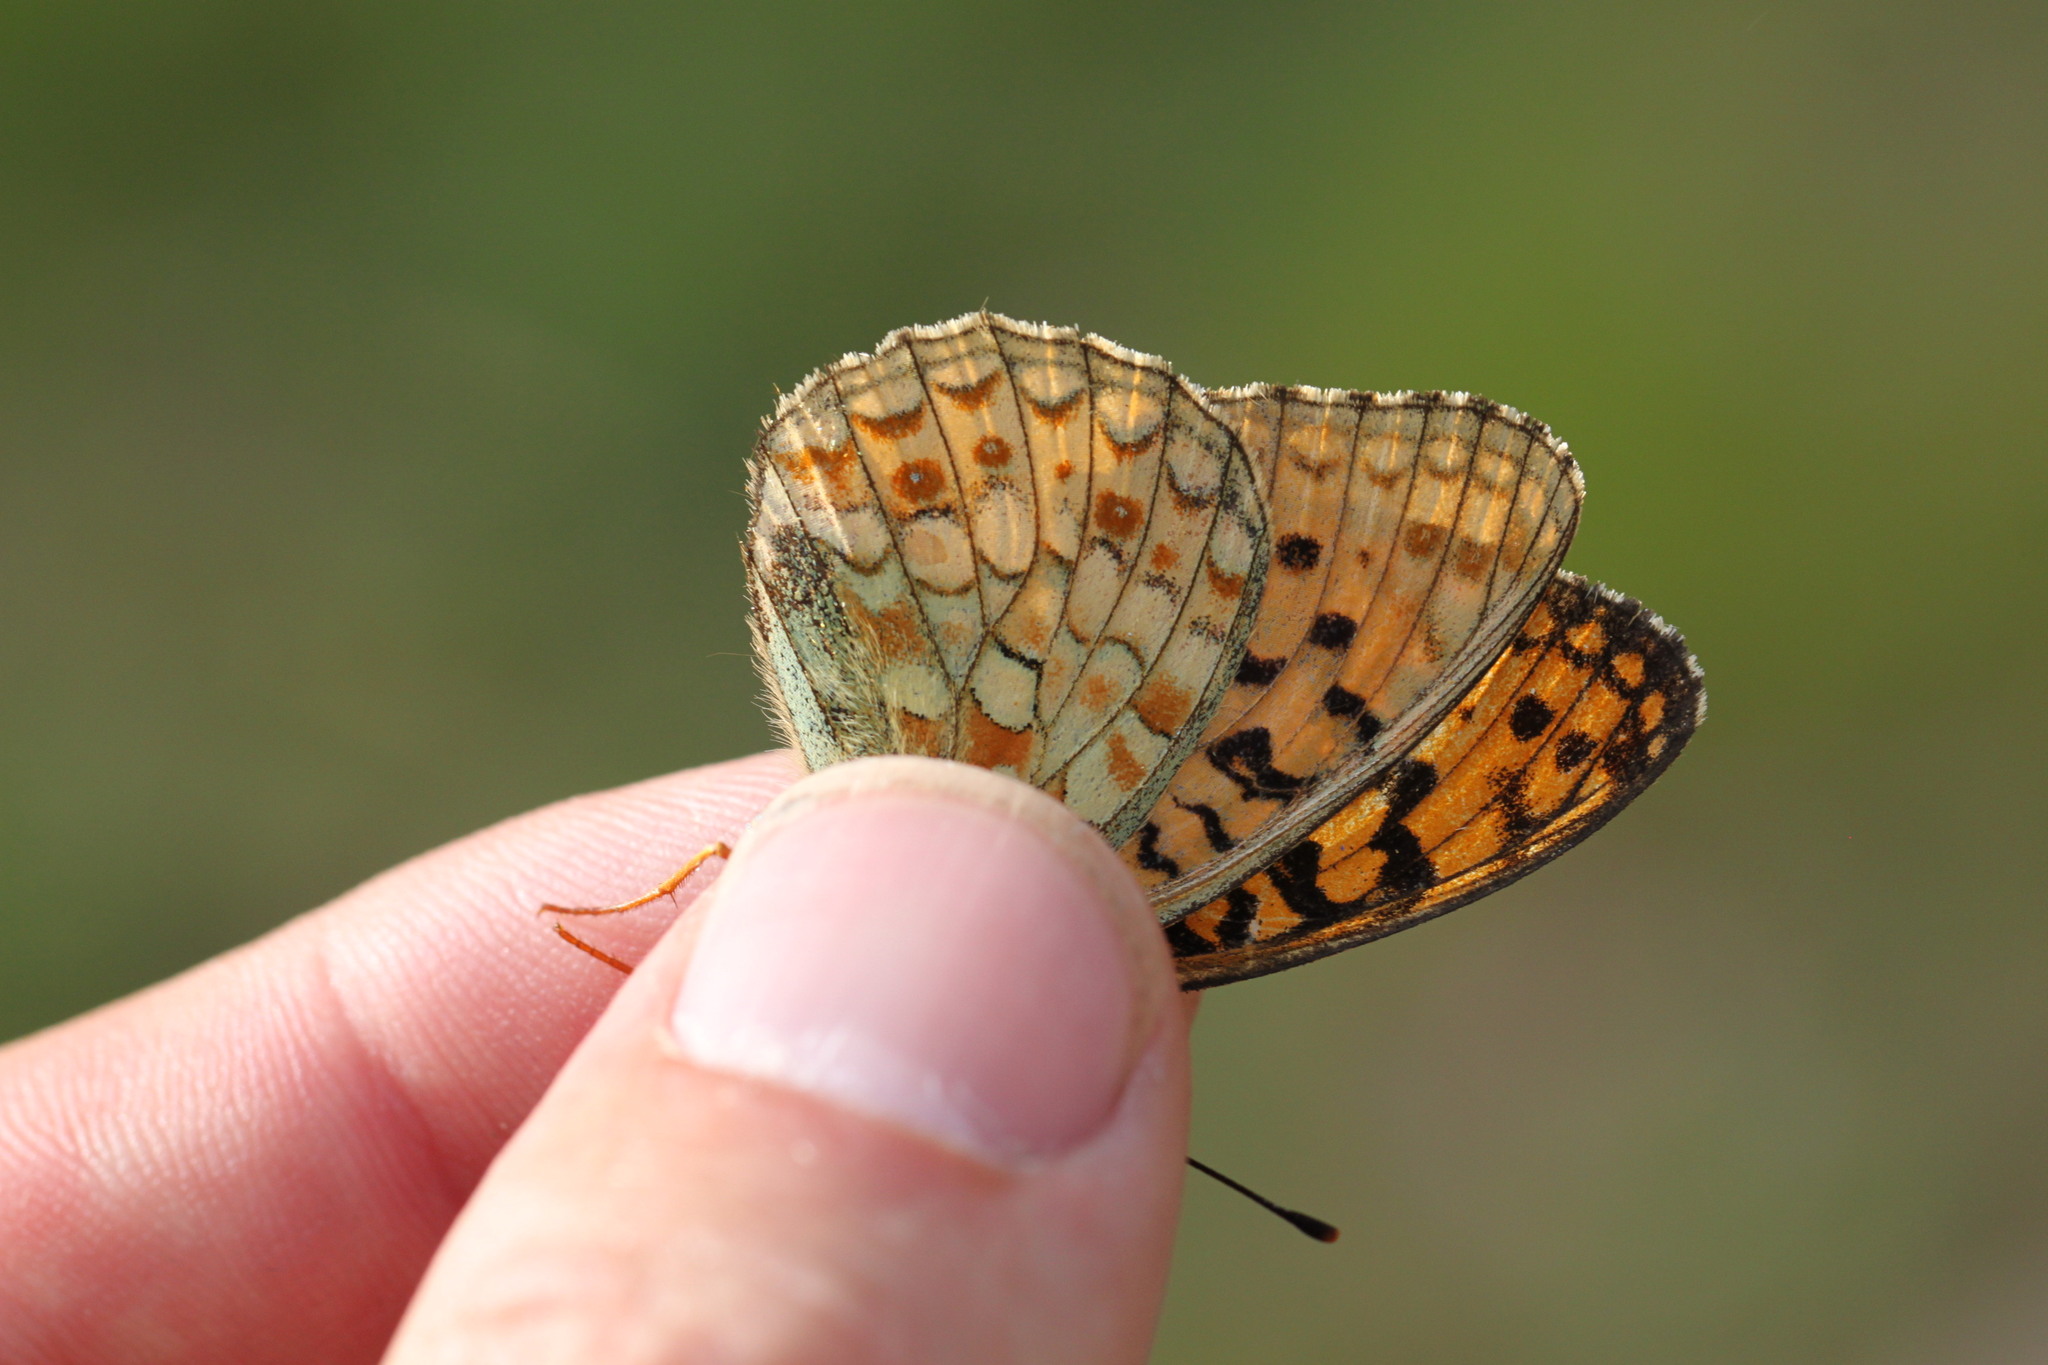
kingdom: Animalia
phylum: Arthropoda
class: Insecta
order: Lepidoptera
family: Nymphalidae
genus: Fabriciana
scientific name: Fabriciana niobe
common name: Niobe fritillary
